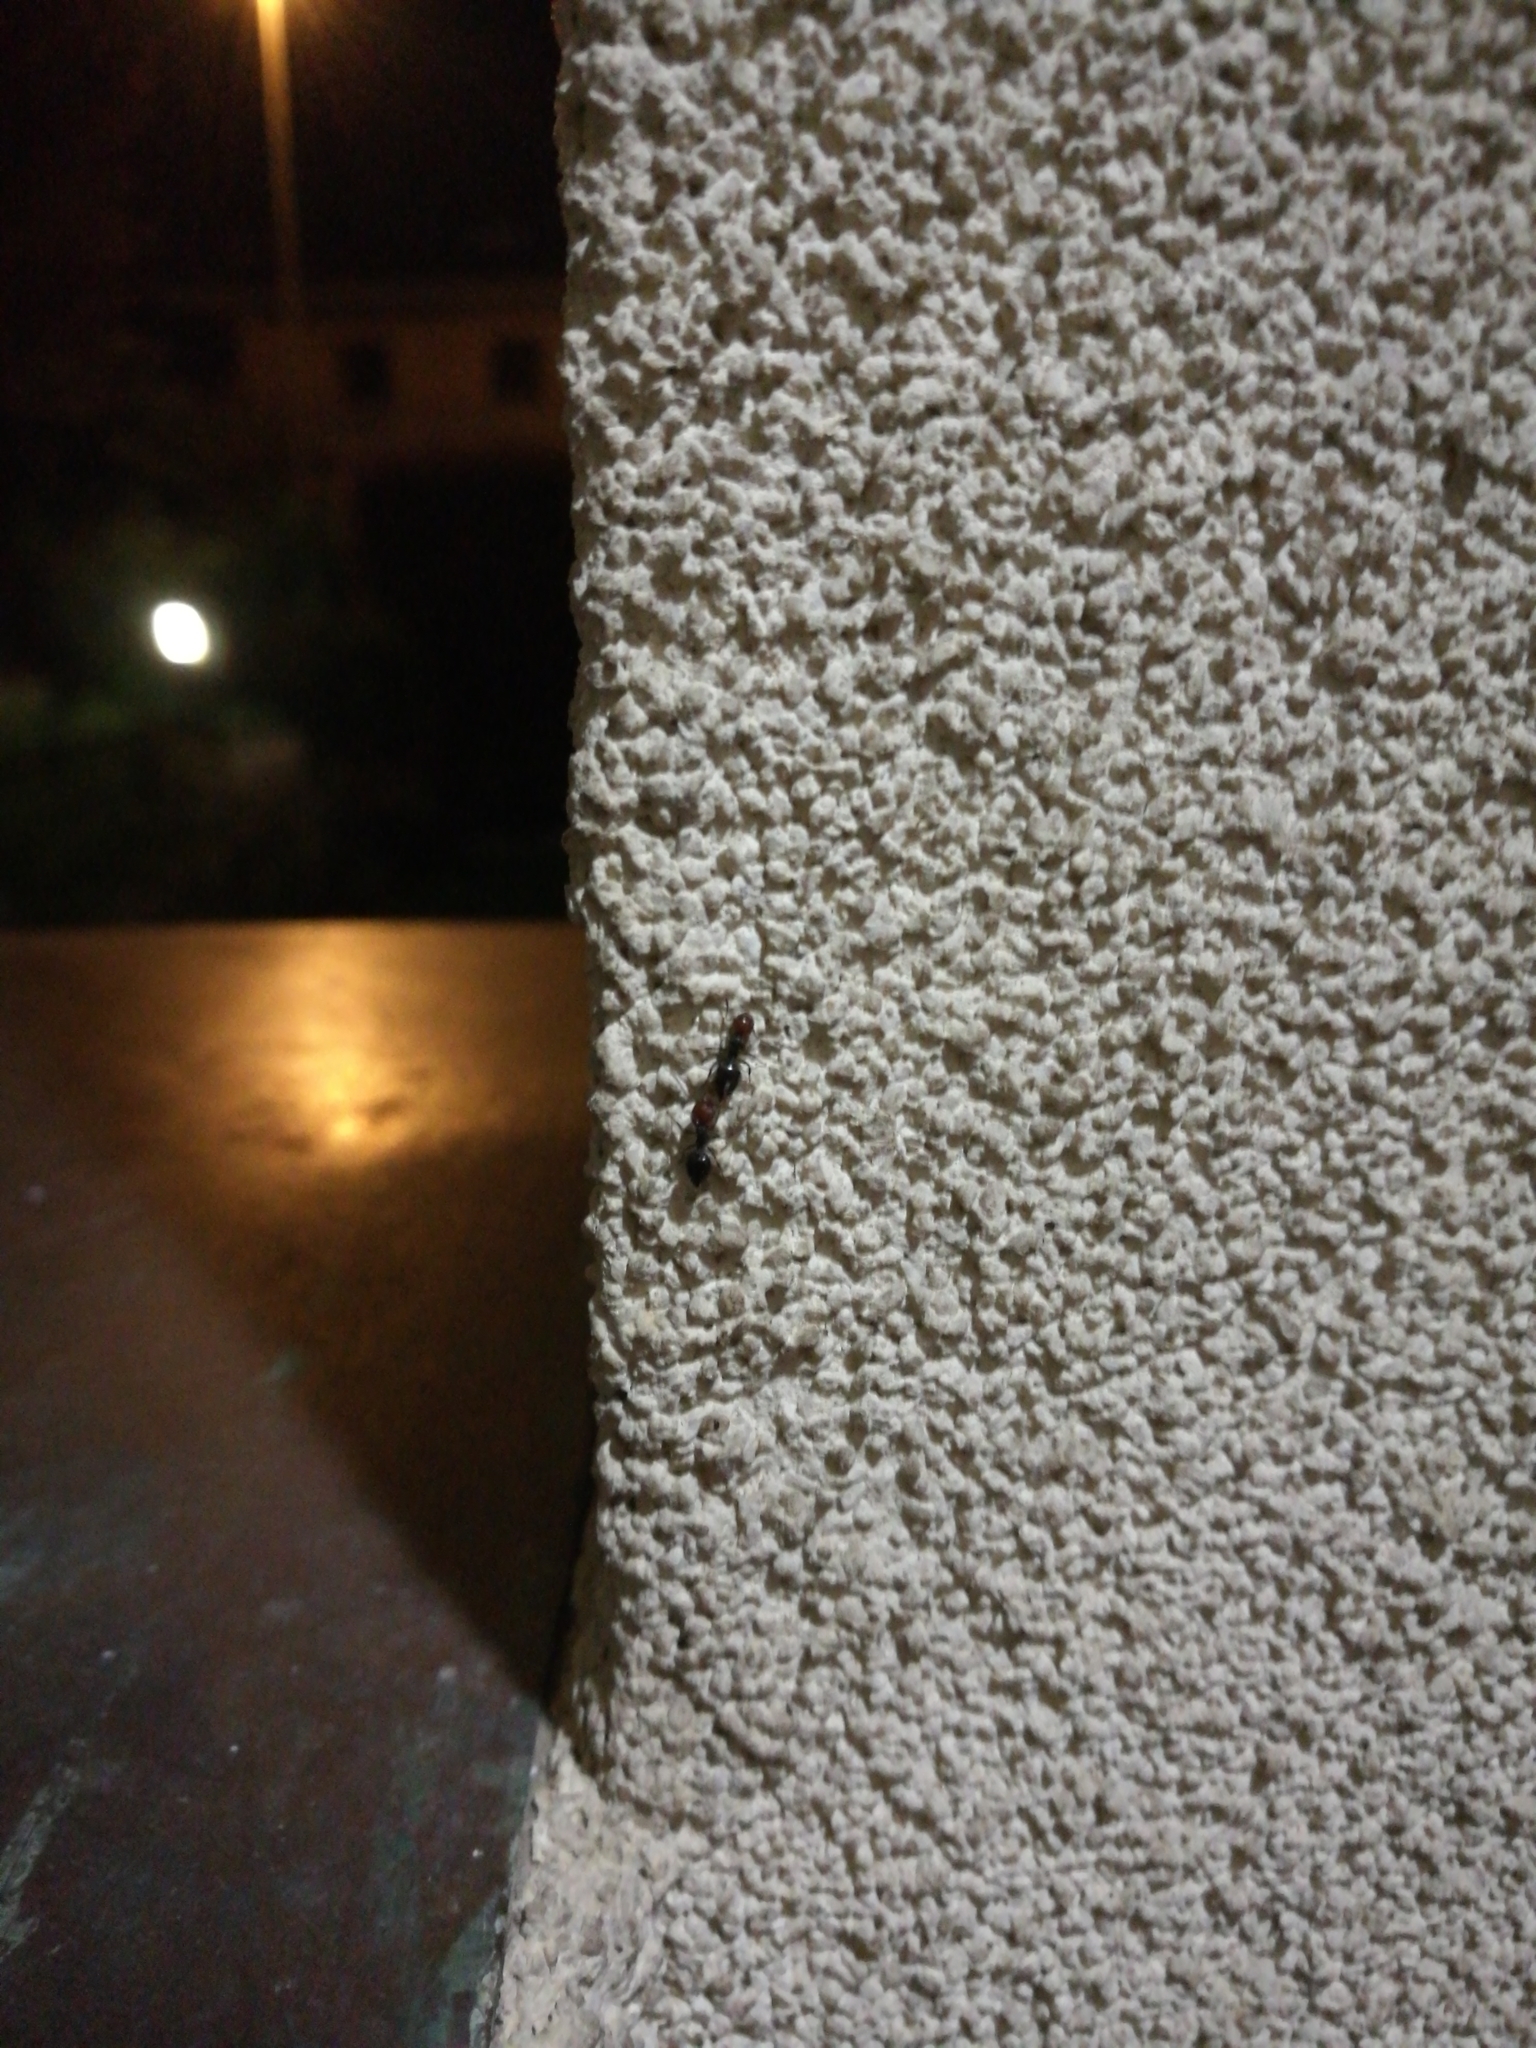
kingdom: Animalia
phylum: Arthropoda
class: Insecta
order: Hymenoptera
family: Formicidae
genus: Crematogaster
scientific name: Crematogaster scutellaris
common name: Fourmi du liège
